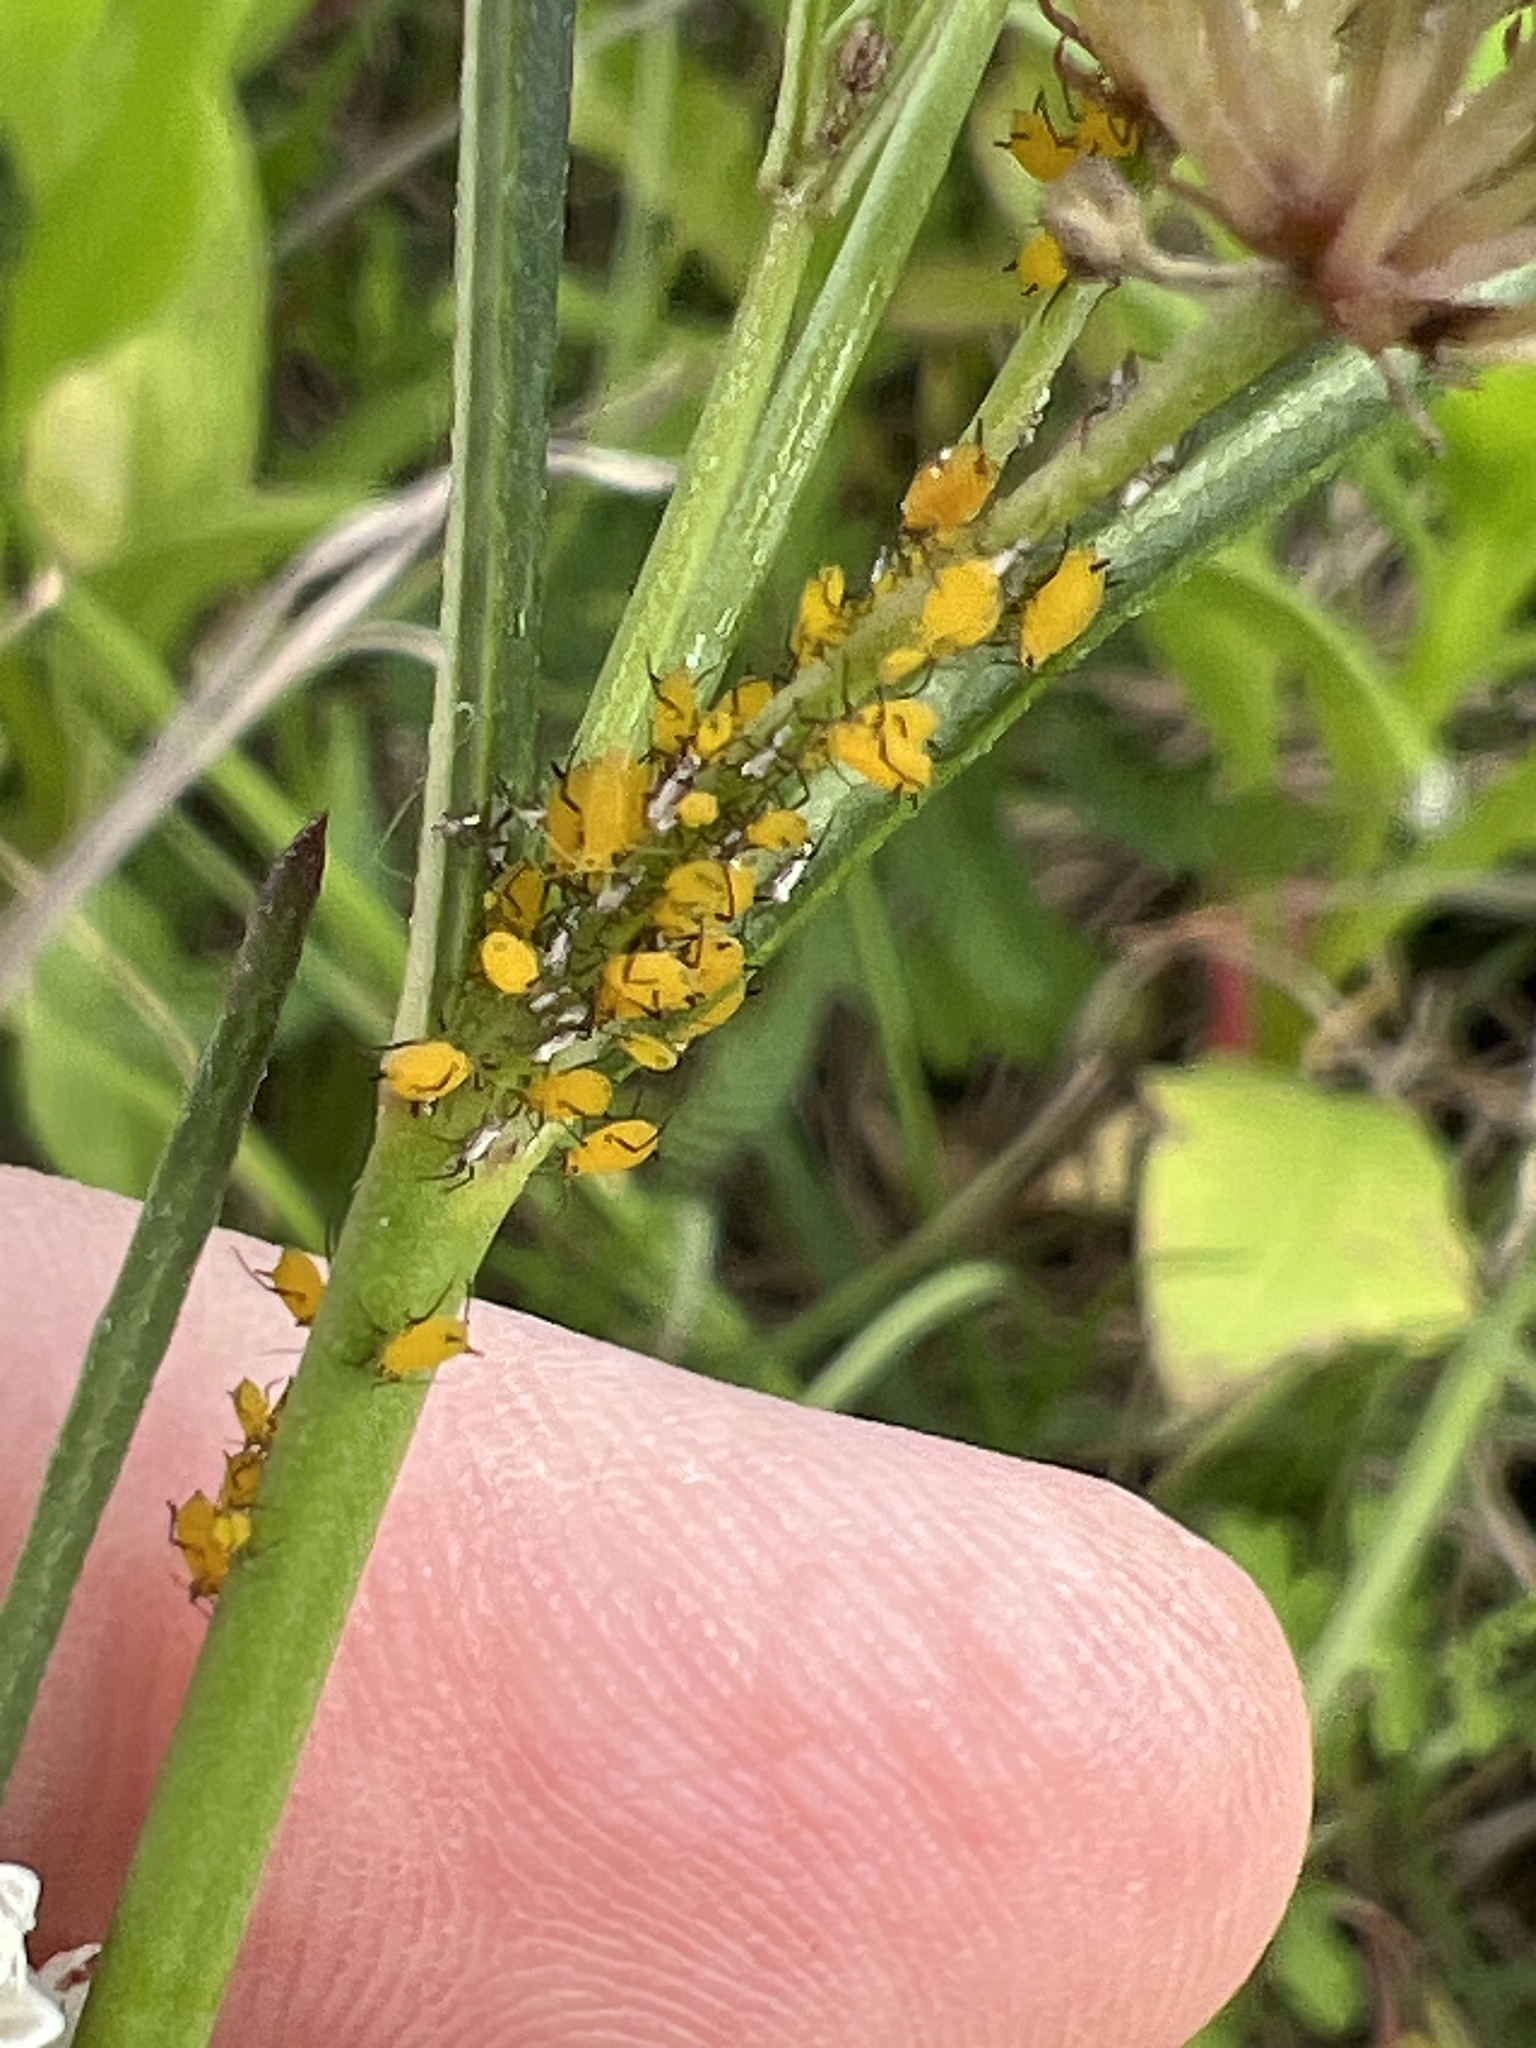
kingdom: Animalia
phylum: Arthropoda
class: Insecta
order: Hemiptera
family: Aphididae
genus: Aphis
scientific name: Aphis nerii
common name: Oleander aphid
